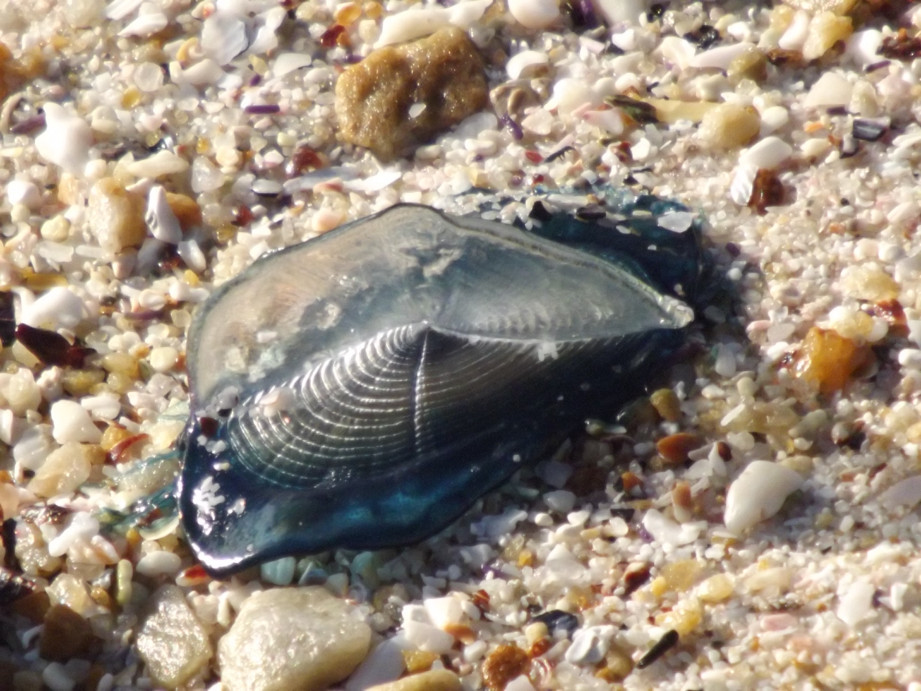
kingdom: Animalia
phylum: Cnidaria
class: Hydrozoa
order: Anthoathecata
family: Porpitidae
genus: Velella
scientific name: Velella velella
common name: By-the-wind-sailor
